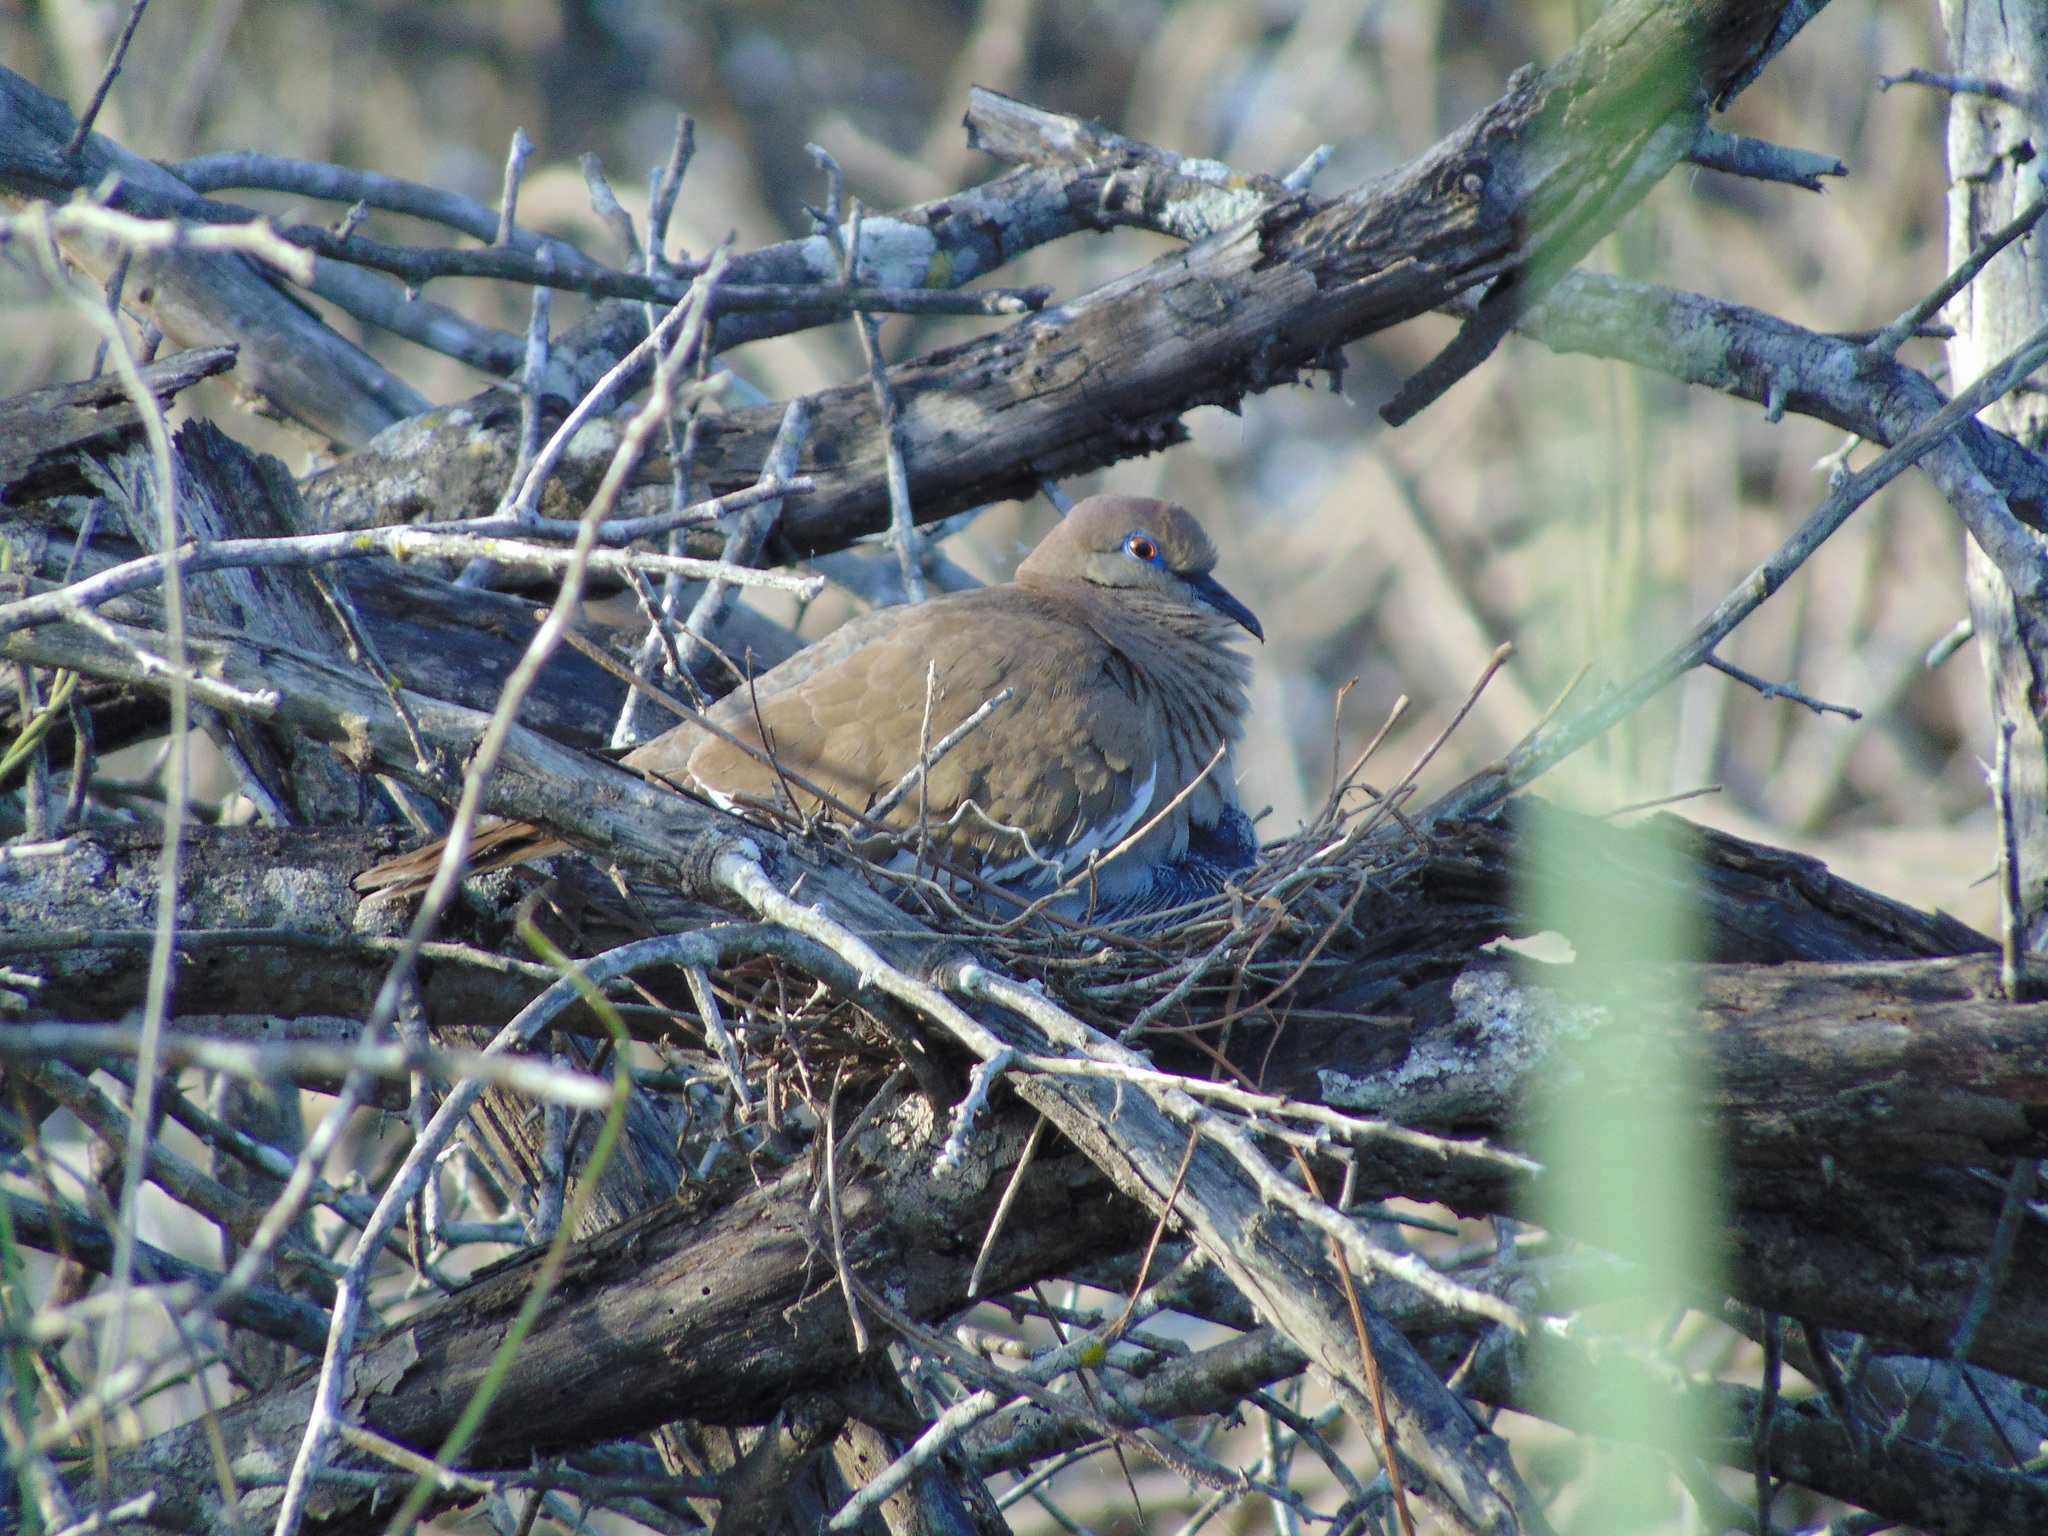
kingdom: Animalia
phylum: Chordata
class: Aves
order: Columbiformes
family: Columbidae
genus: Zenaida
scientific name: Zenaida asiatica
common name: White-winged dove
